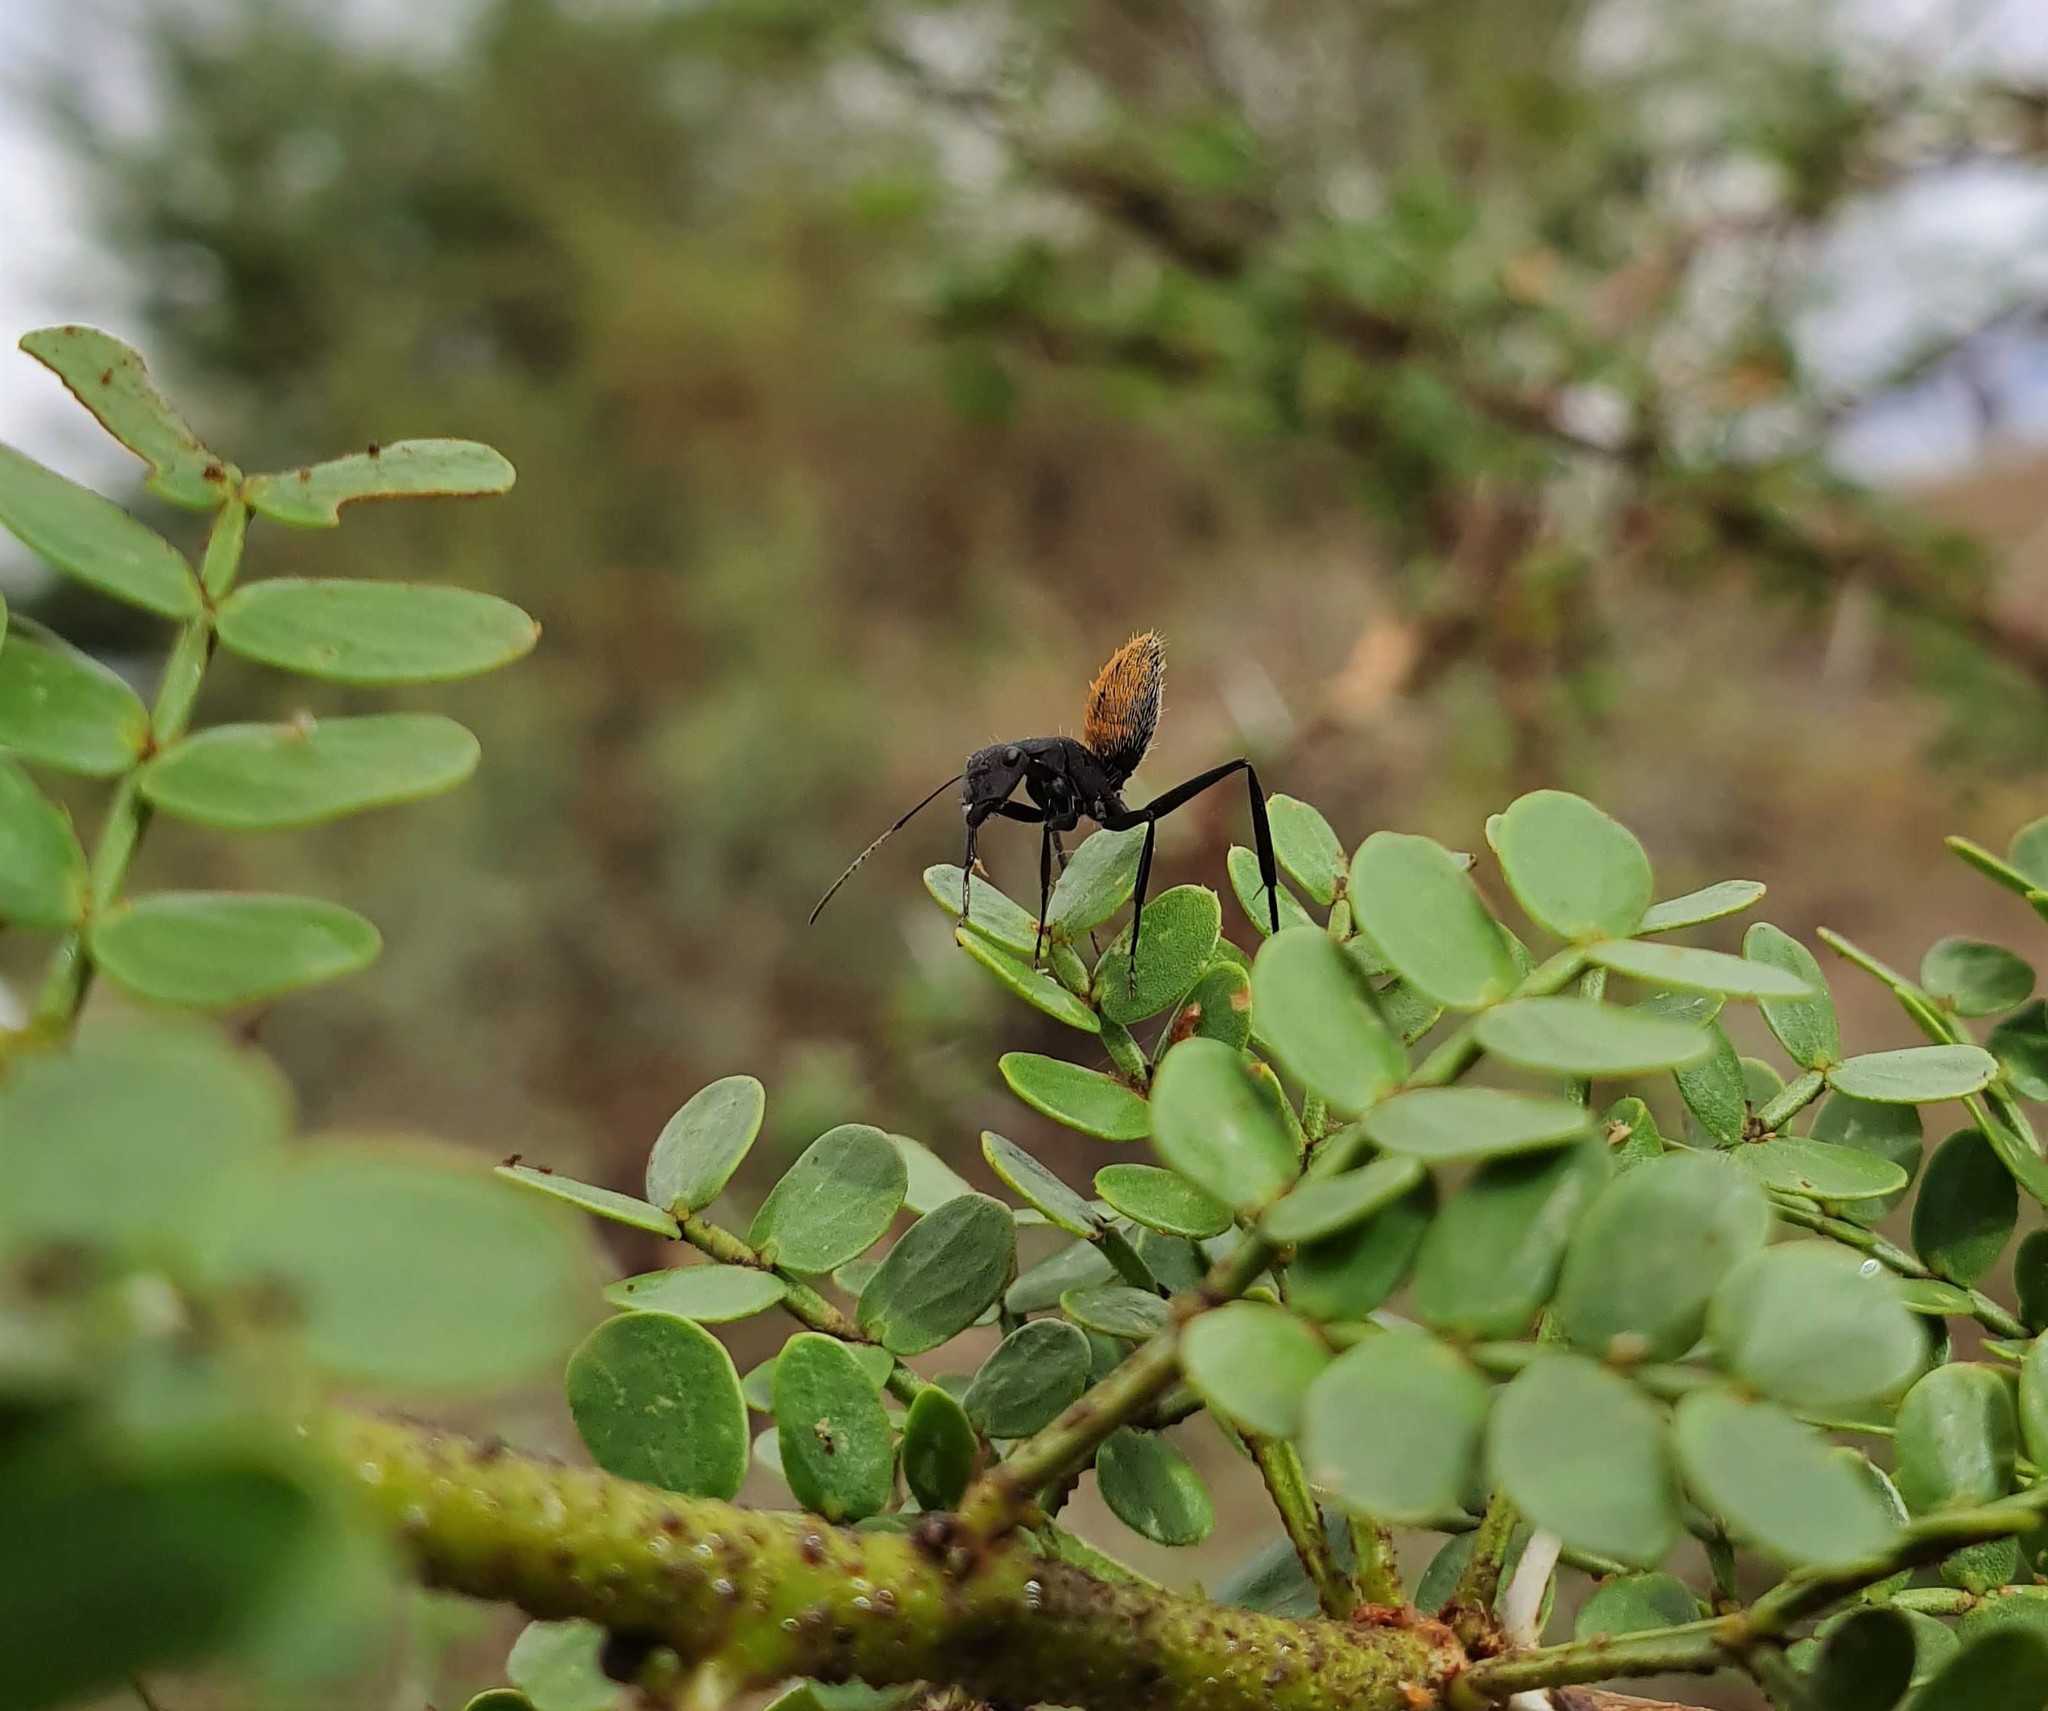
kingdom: Animalia
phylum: Arthropoda
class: Insecta
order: Hymenoptera
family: Formicidae
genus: Camponotus
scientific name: Camponotus fulvopilosus
